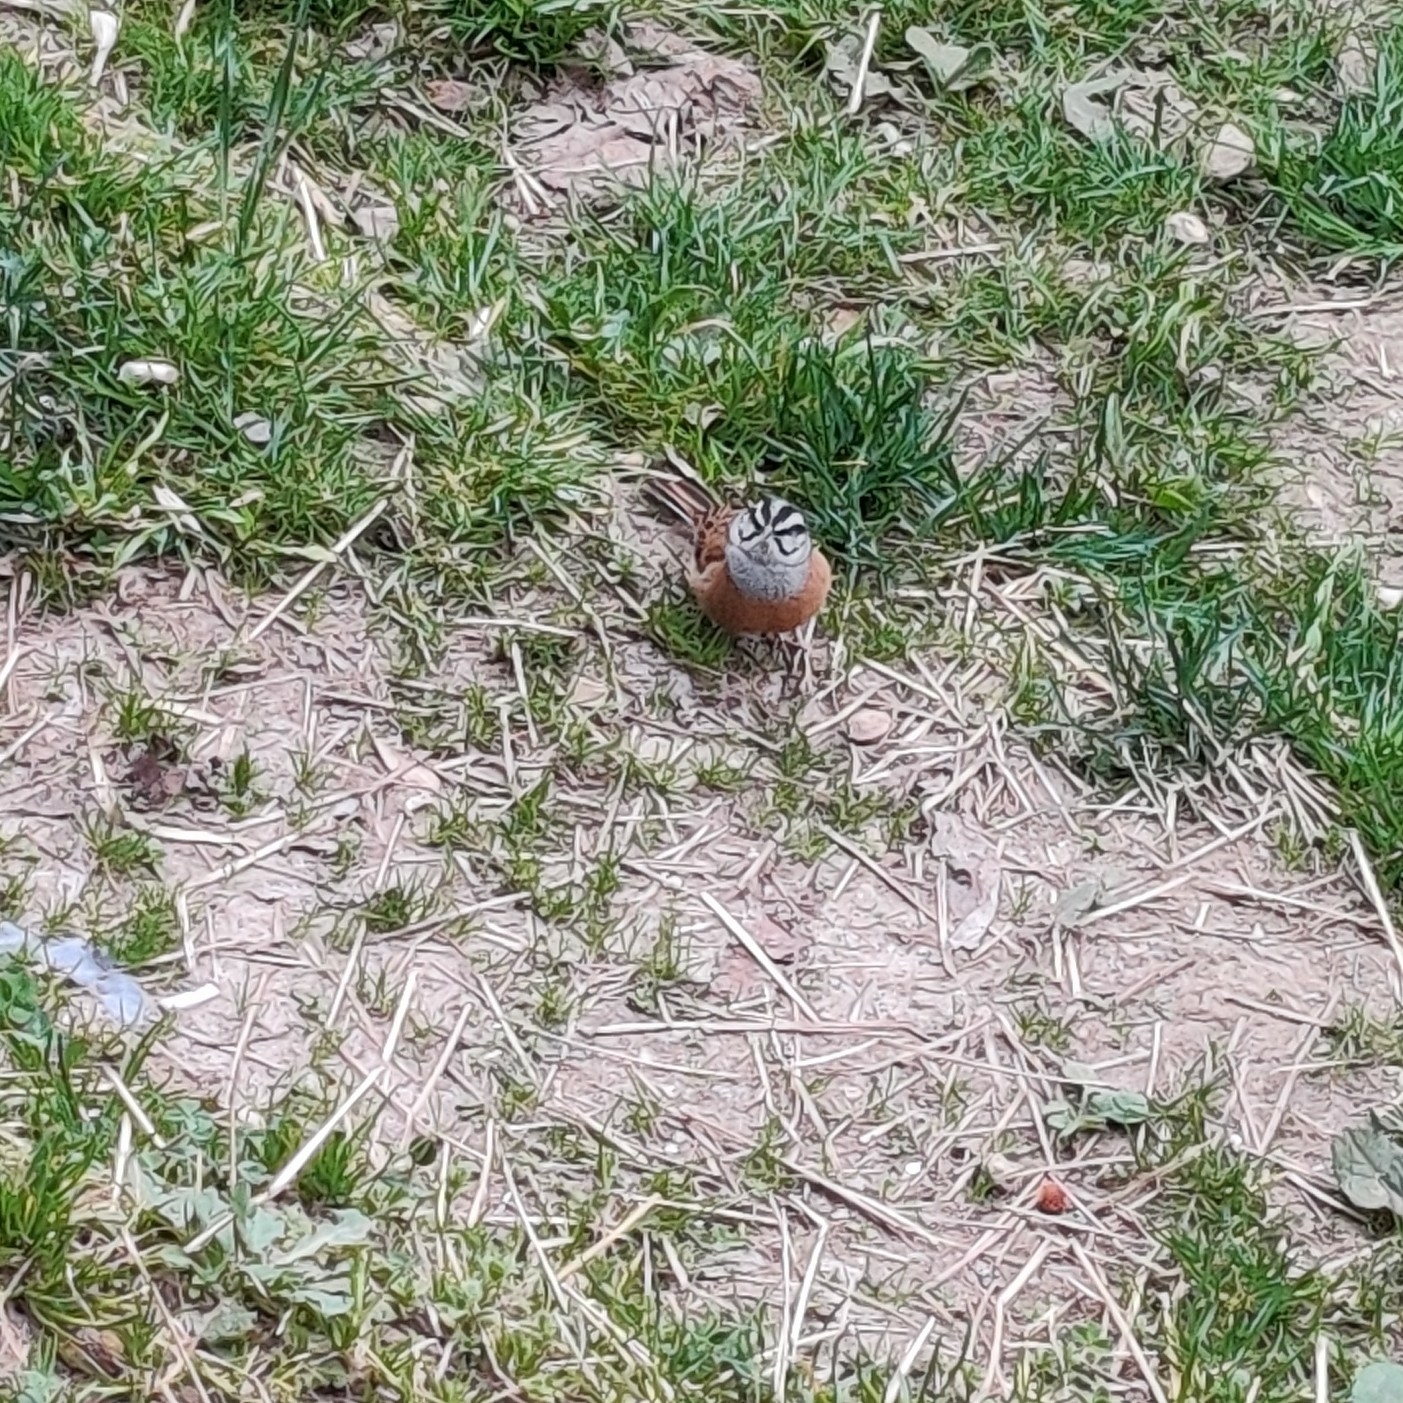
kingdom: Animalia
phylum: Chordata
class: Aves
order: Passeriformes
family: Emberizidae
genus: Emberiza
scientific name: Emberiza cia
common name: Rock bunting
